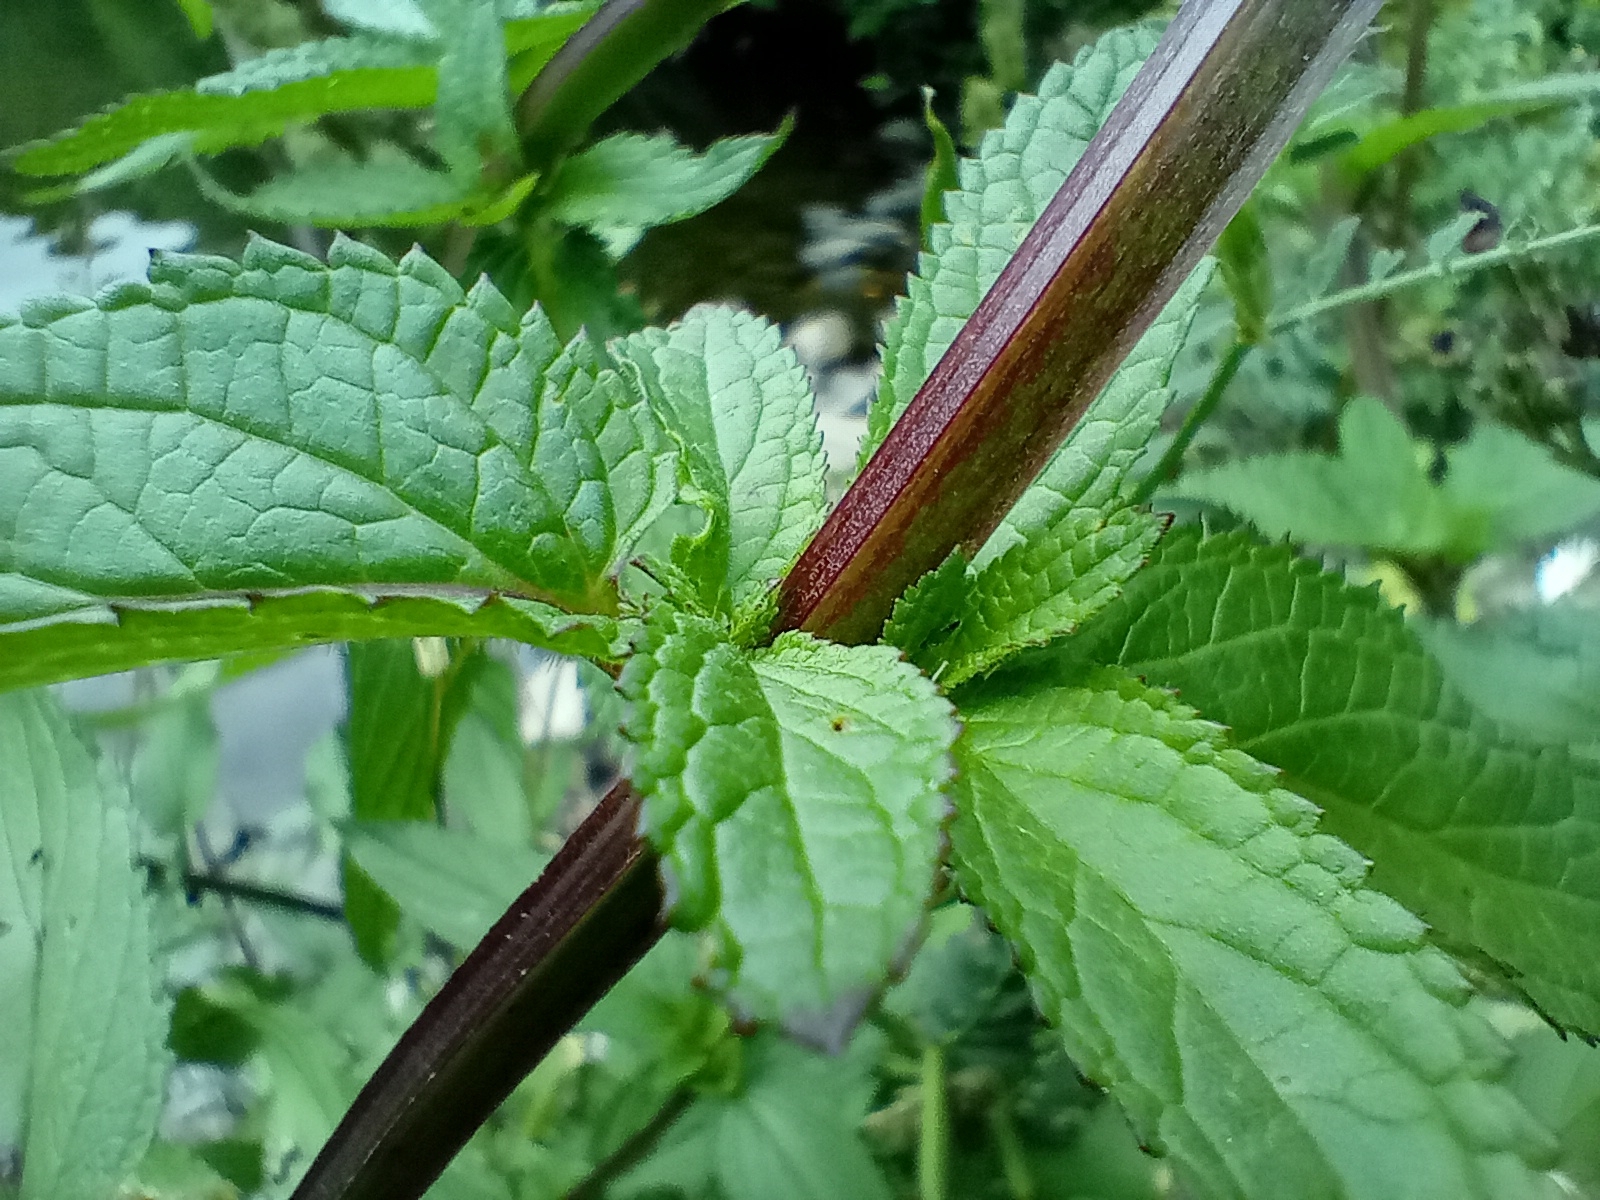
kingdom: Plantae
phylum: Tracheophyta
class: Magnoliopsida
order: Lamiales
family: Scrophulariaceae
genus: Scrophularia
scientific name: Scrophularia auriculata
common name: Water betony
